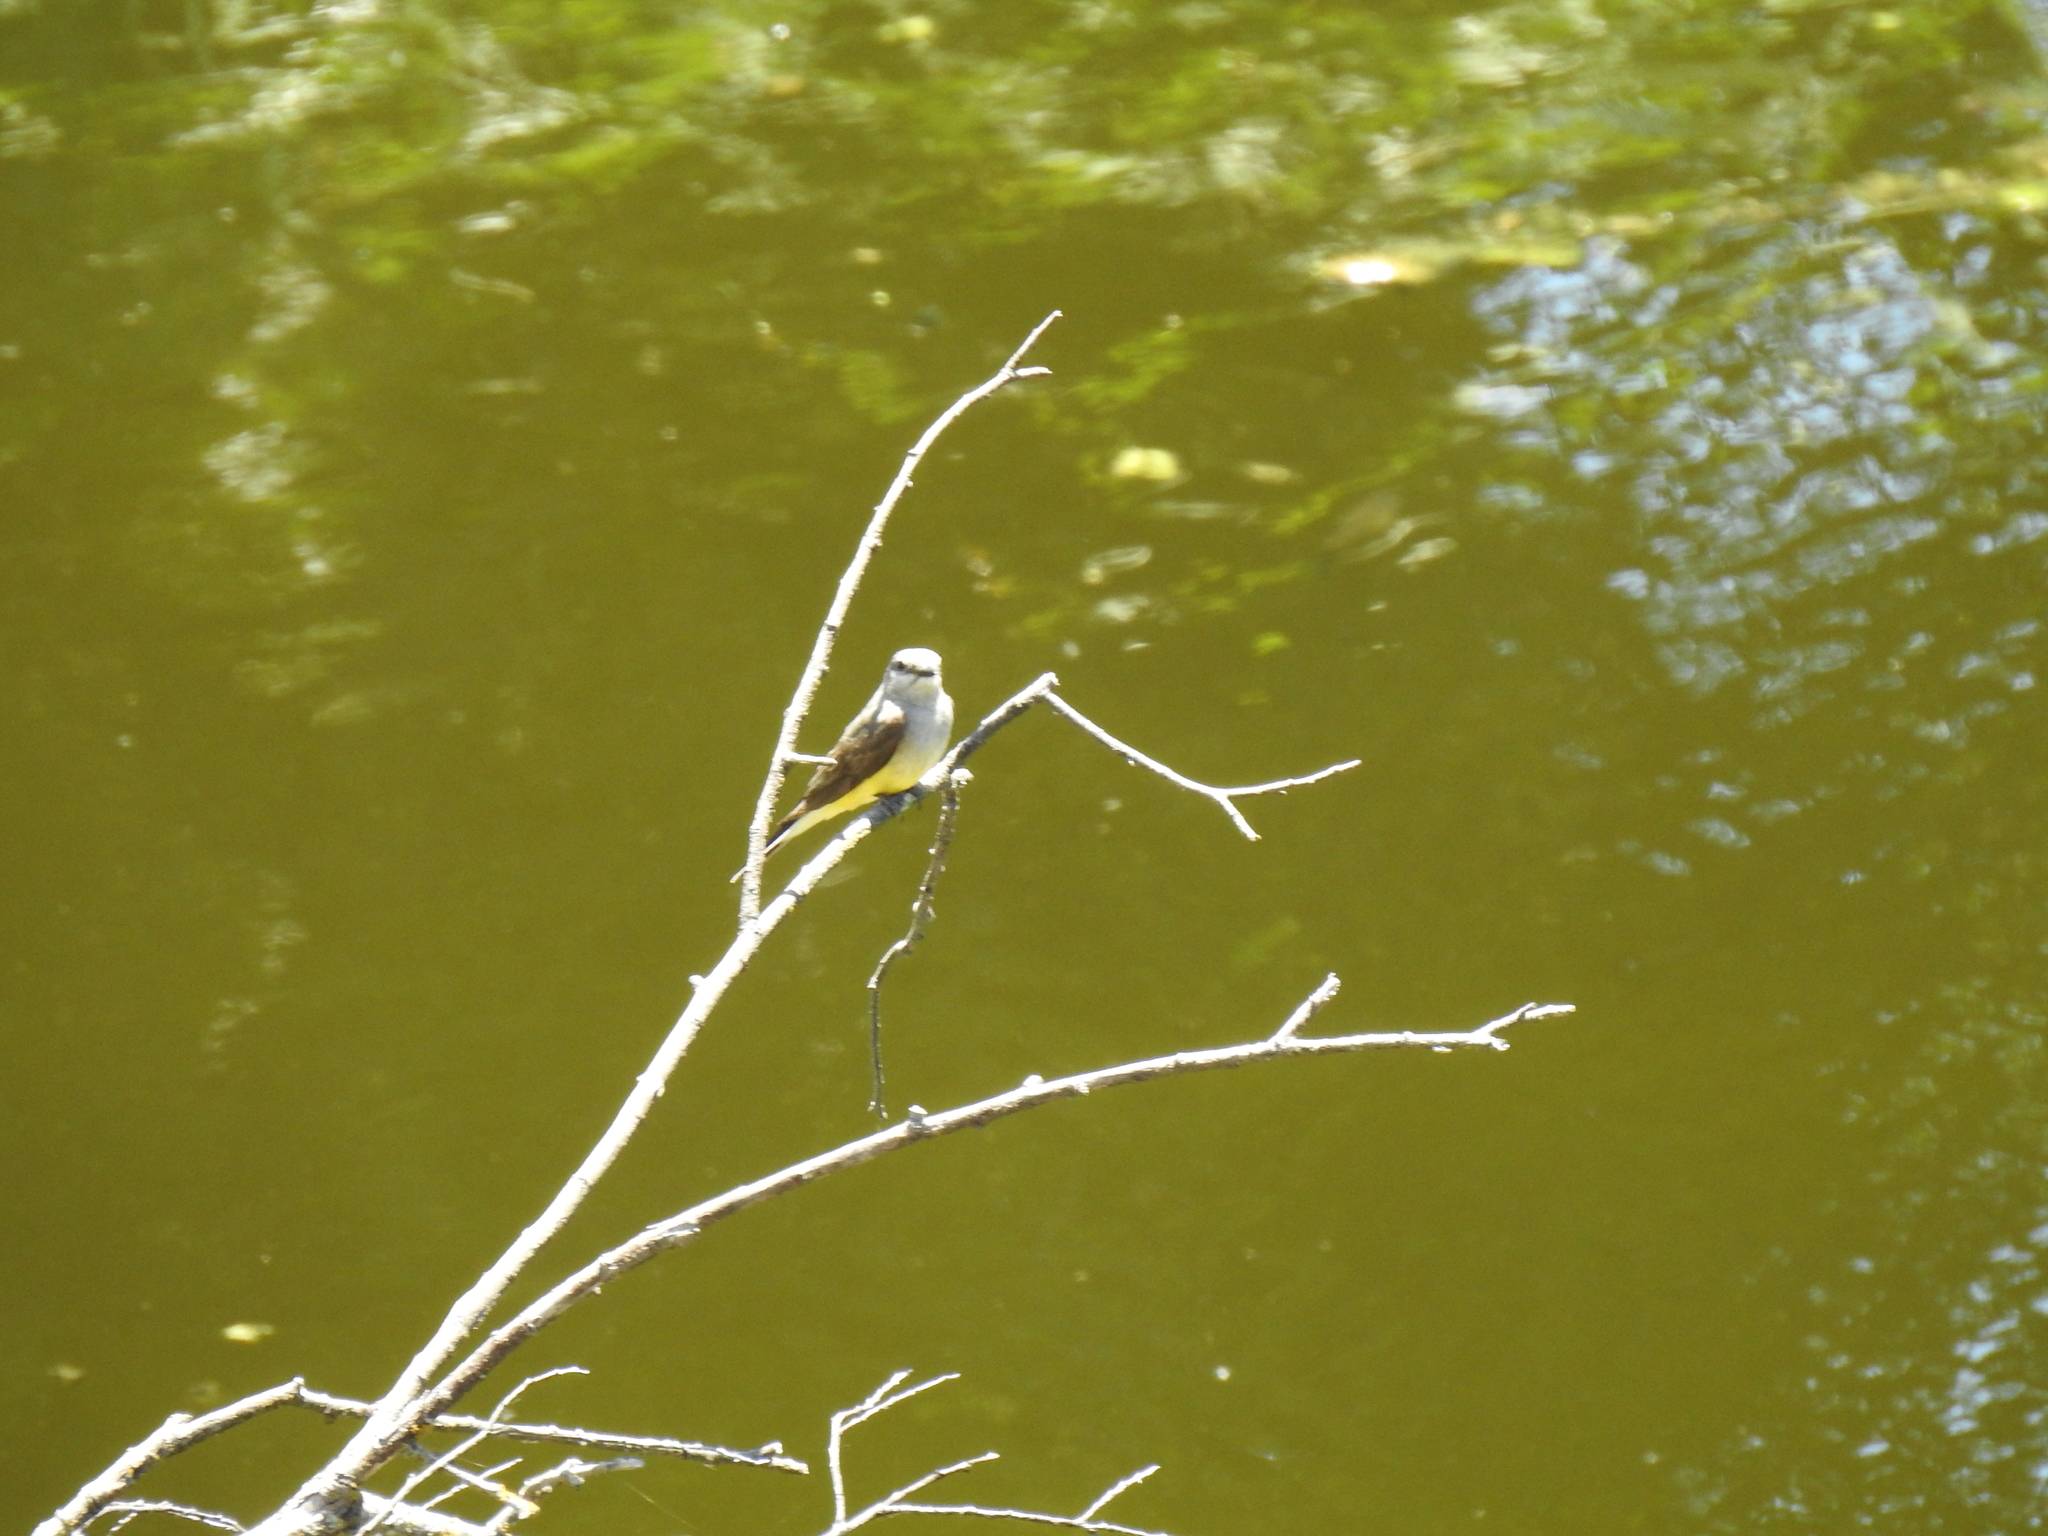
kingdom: Animalia
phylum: Chordata
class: Aves
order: Passeriformes
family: Tyrannidae
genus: Tyrannus
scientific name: Tyrannus verticalis
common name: Western kingbird
